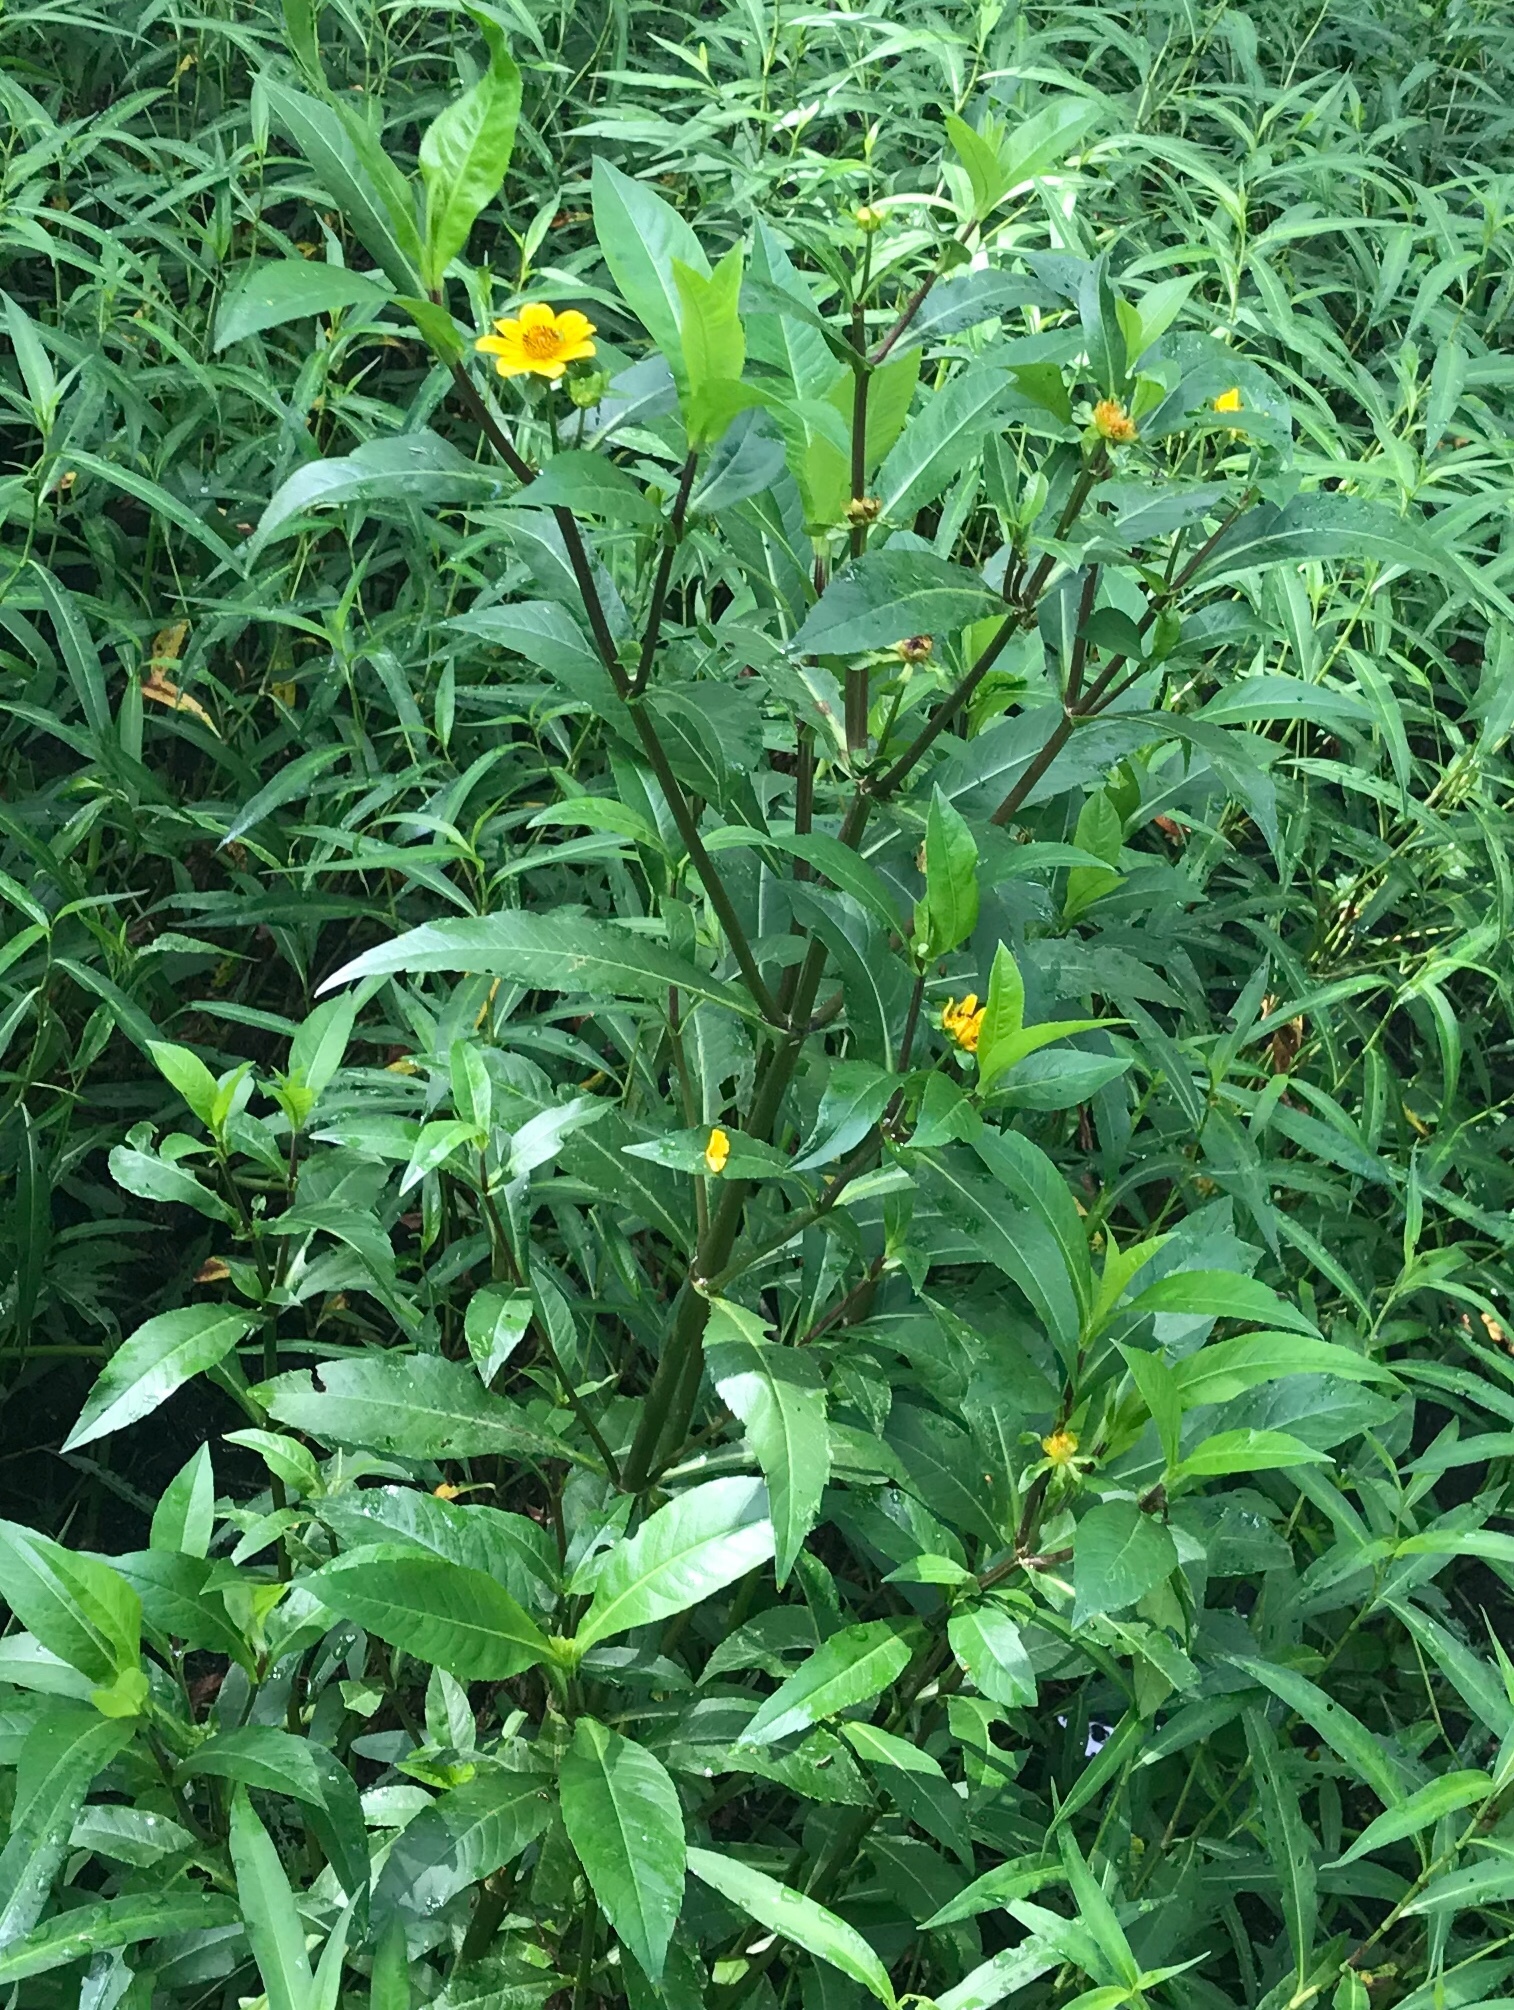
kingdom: Plantae
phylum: Tracheophyta
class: Magnoliopsida
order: Asterales
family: Asteraceae
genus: Bidens
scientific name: Bidens laevis
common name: Larger bur-marigold
